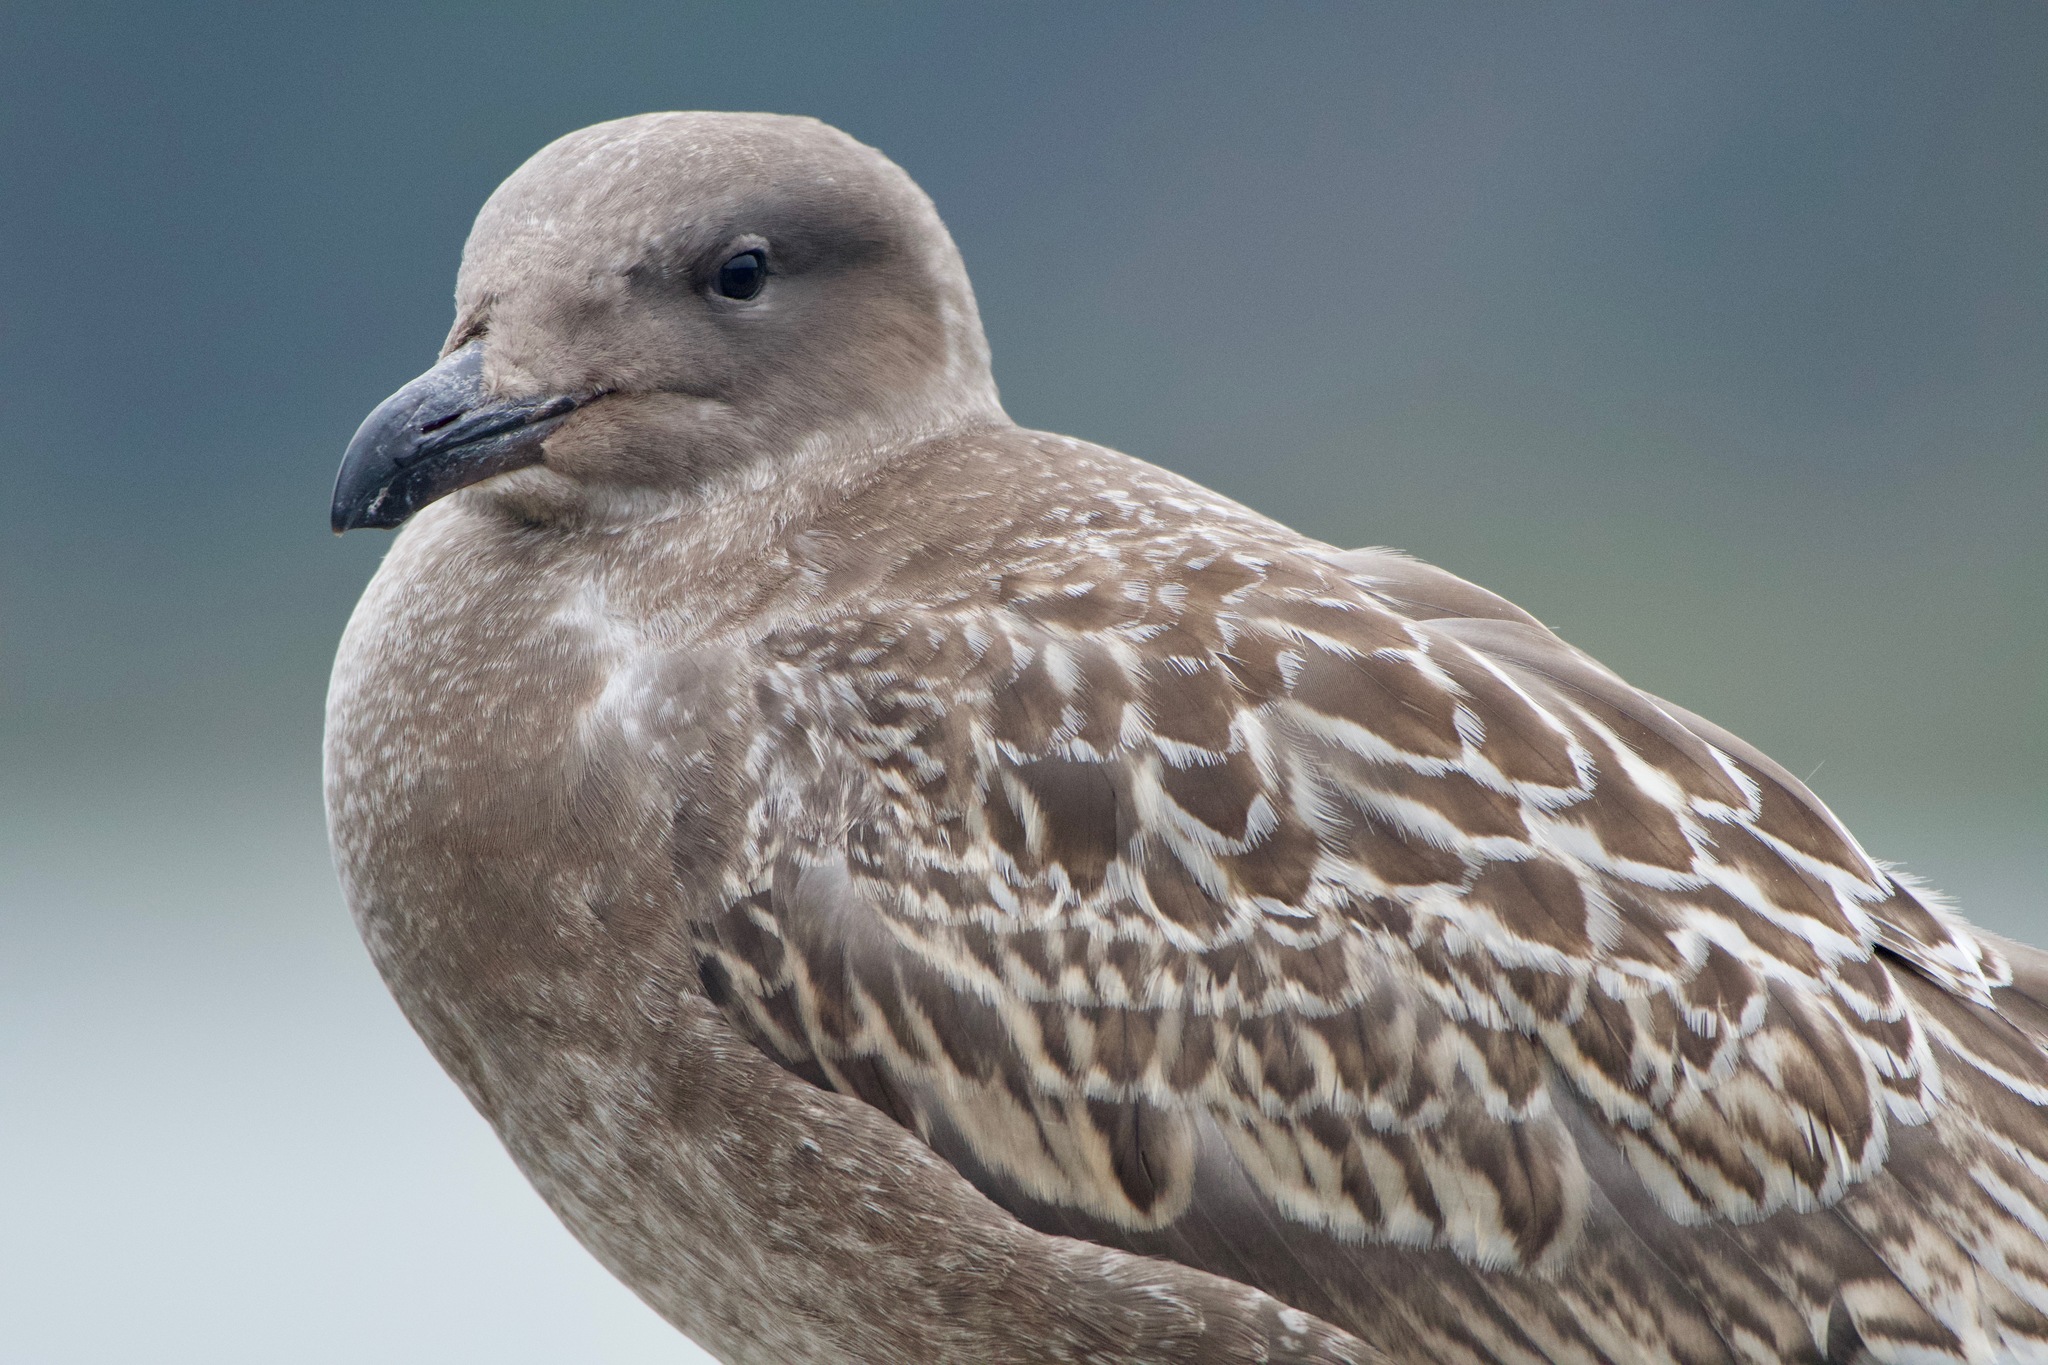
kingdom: Animalia
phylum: Chordata
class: Aves
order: Charadriiformes
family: Laridae
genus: Larus
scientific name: Larus occidentalis
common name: Western gull
